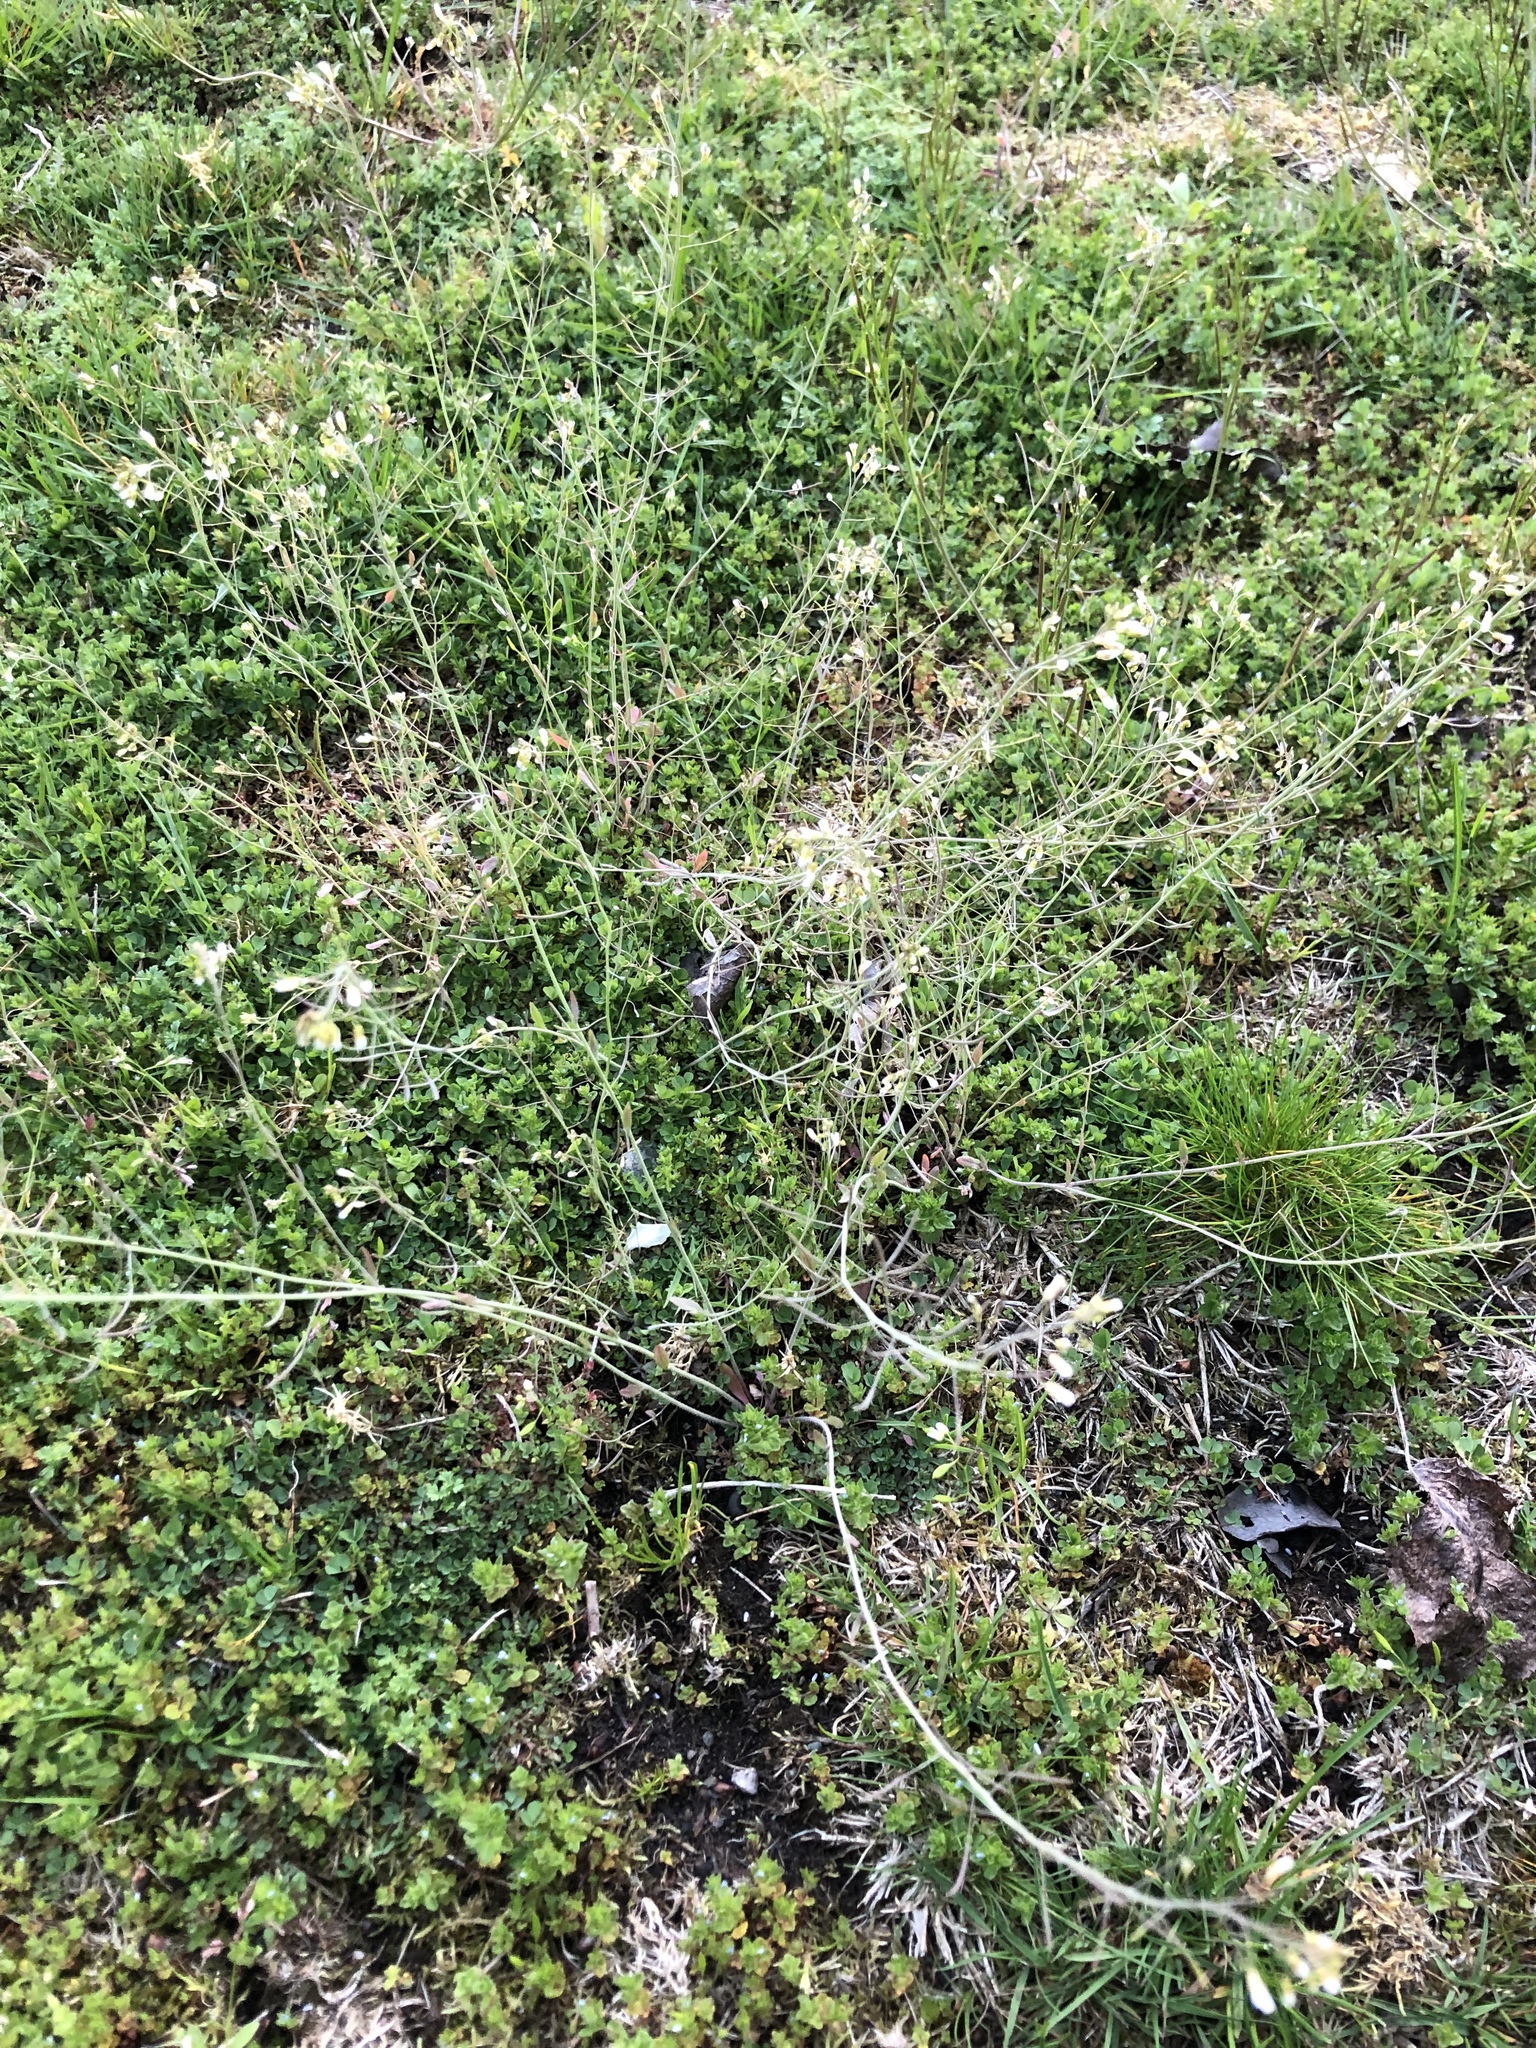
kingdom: Plantae
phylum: Tracheophyta
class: Magnoliopsida
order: Brassicales
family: Brassicaceae
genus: Arabidopsis
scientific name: Arabidopsis thaliana
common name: Thale cress
